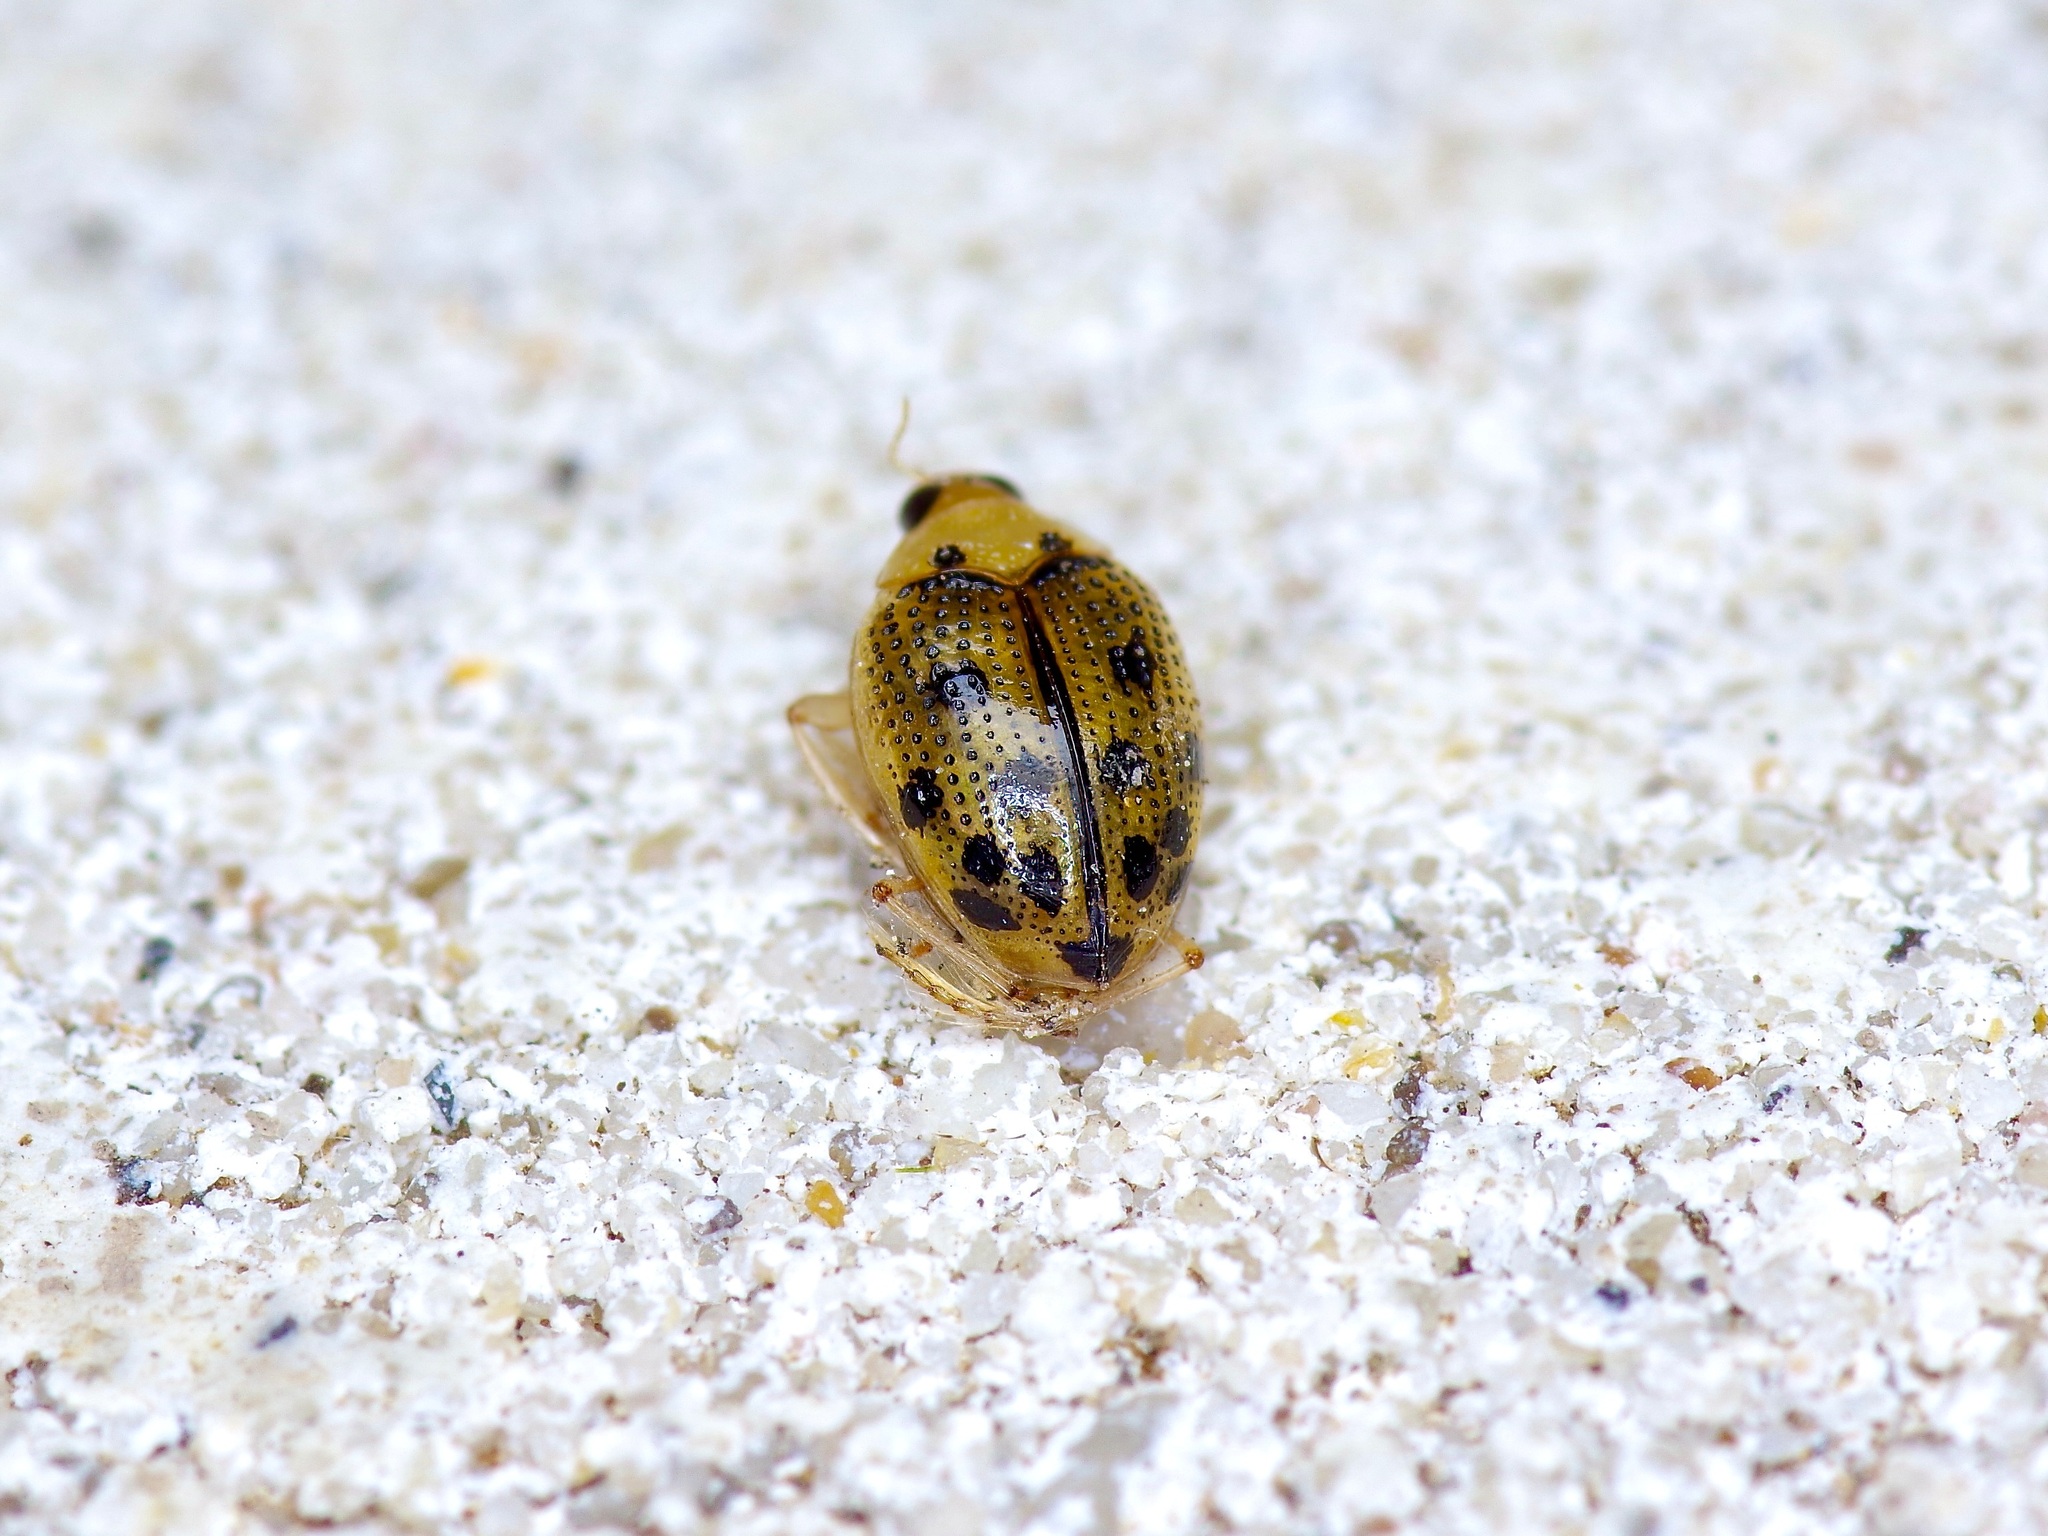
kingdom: Animalia
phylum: Arthropoda
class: Insecta
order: Coleoptera
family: Haliplidae
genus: Peltodytes
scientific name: Peltodytes
